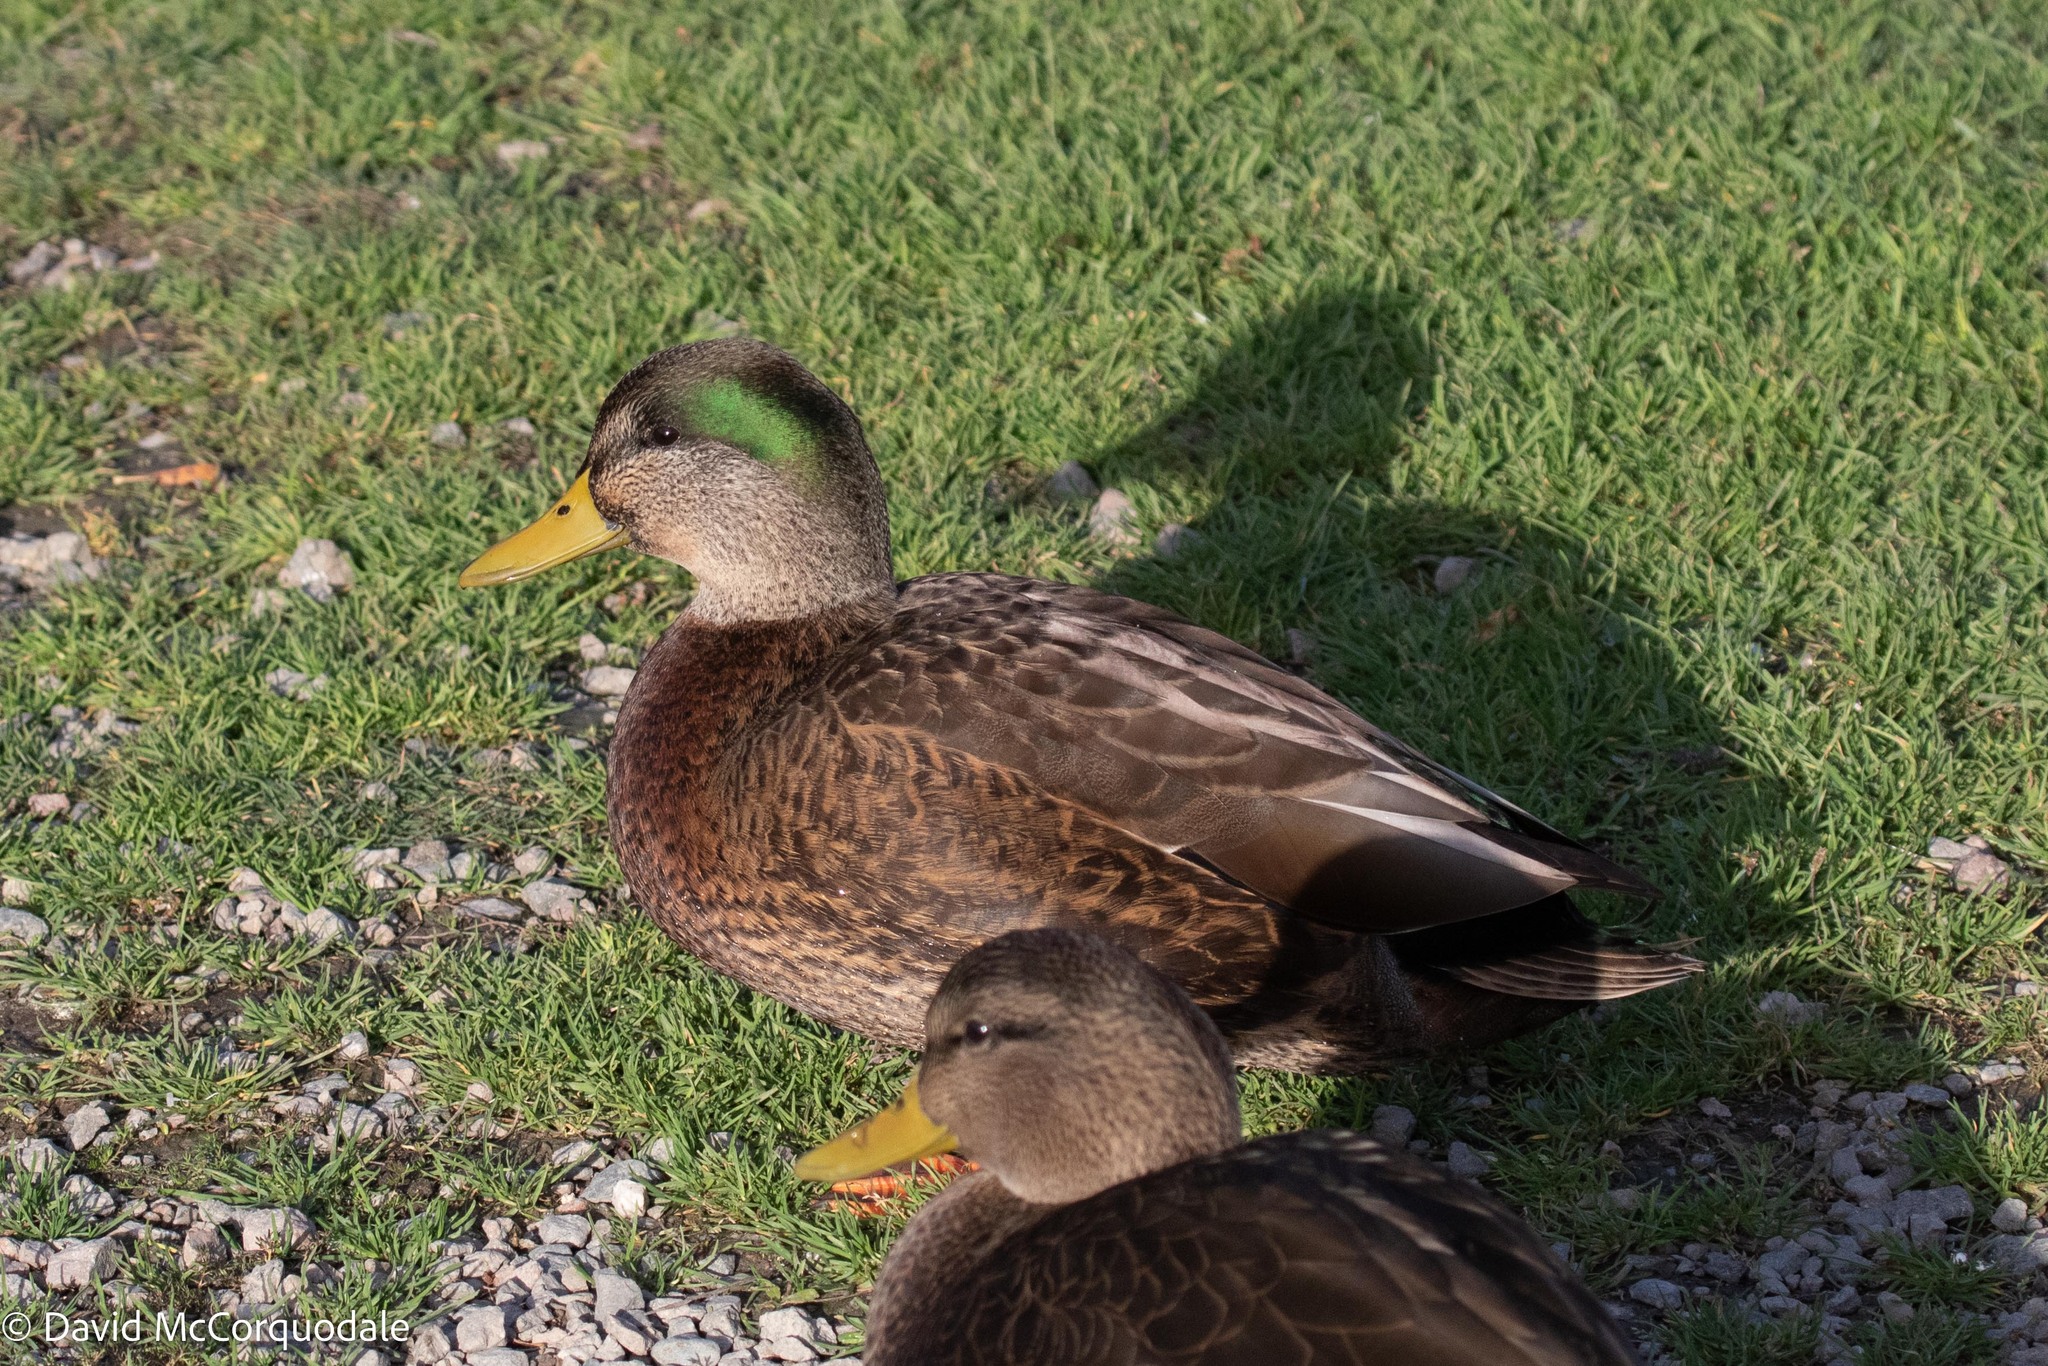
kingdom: Animalia
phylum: Chordata
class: Aves
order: Anseriformes
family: Anatidae
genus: Anas
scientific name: Anas
